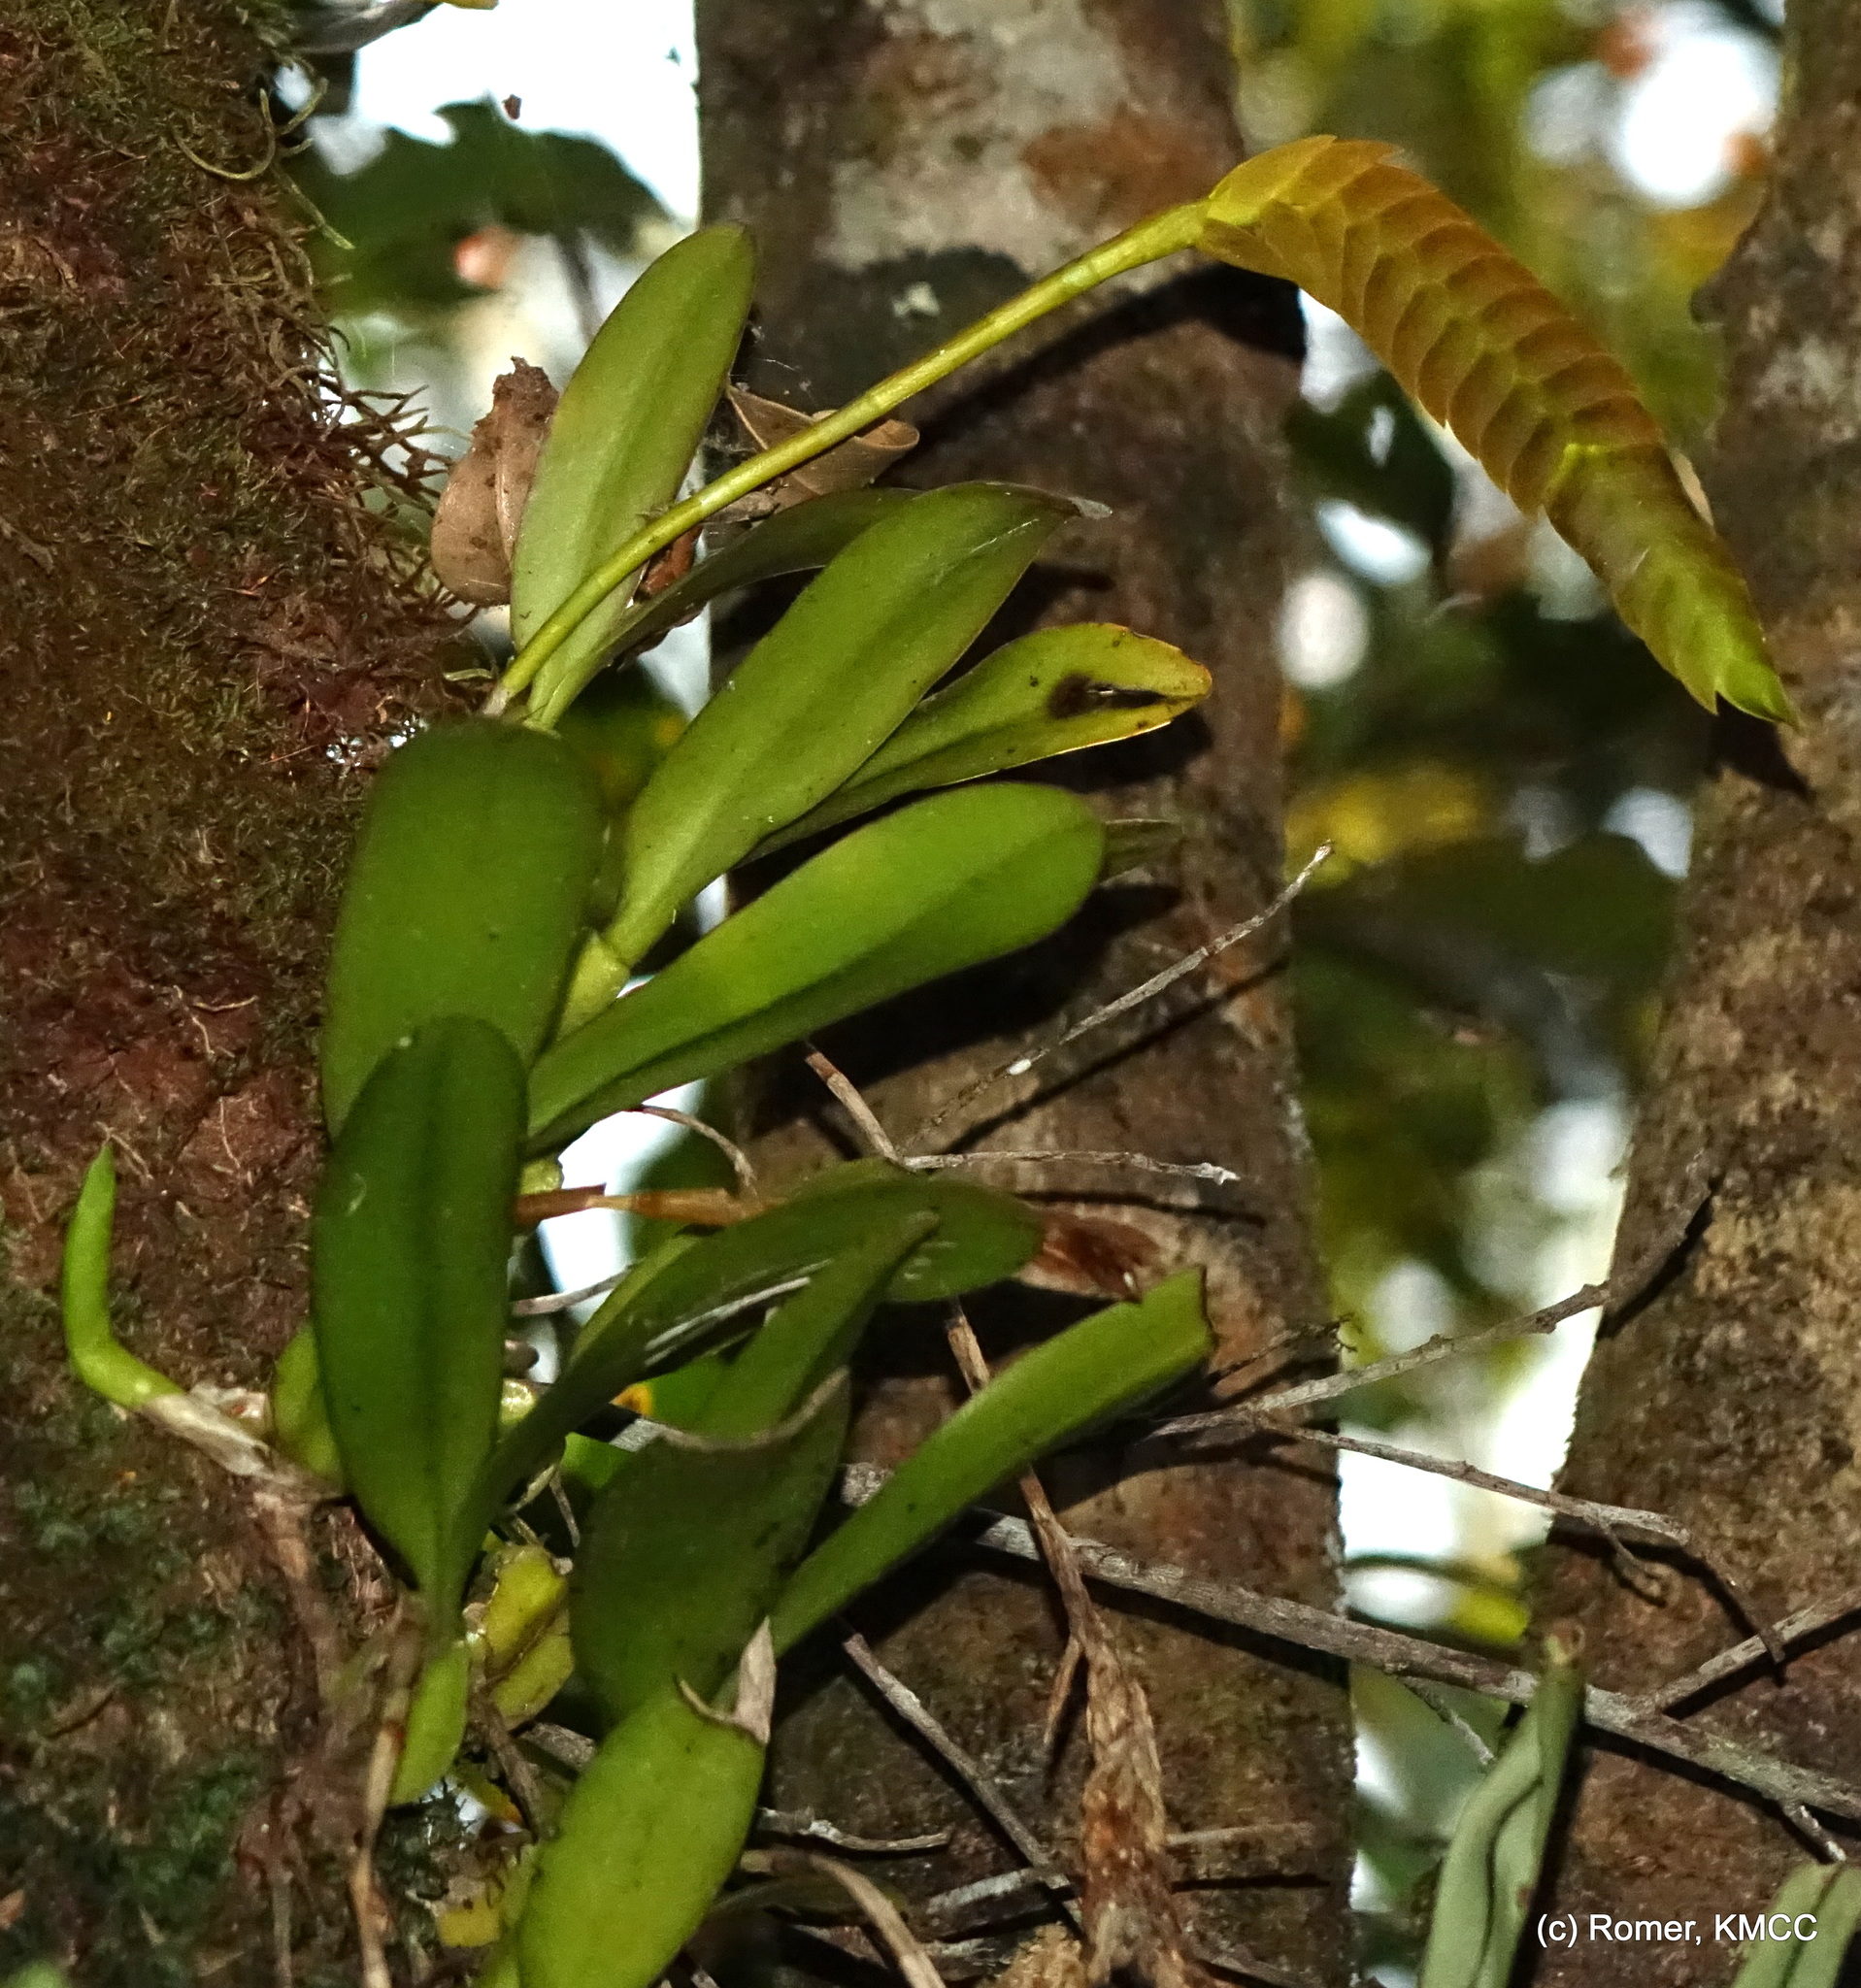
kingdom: Plantae
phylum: Tracheophyta
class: Liliopsida
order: Asparagales
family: Orchidaceae
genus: Bulbophyllum
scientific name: Bulbophyllum occultum
